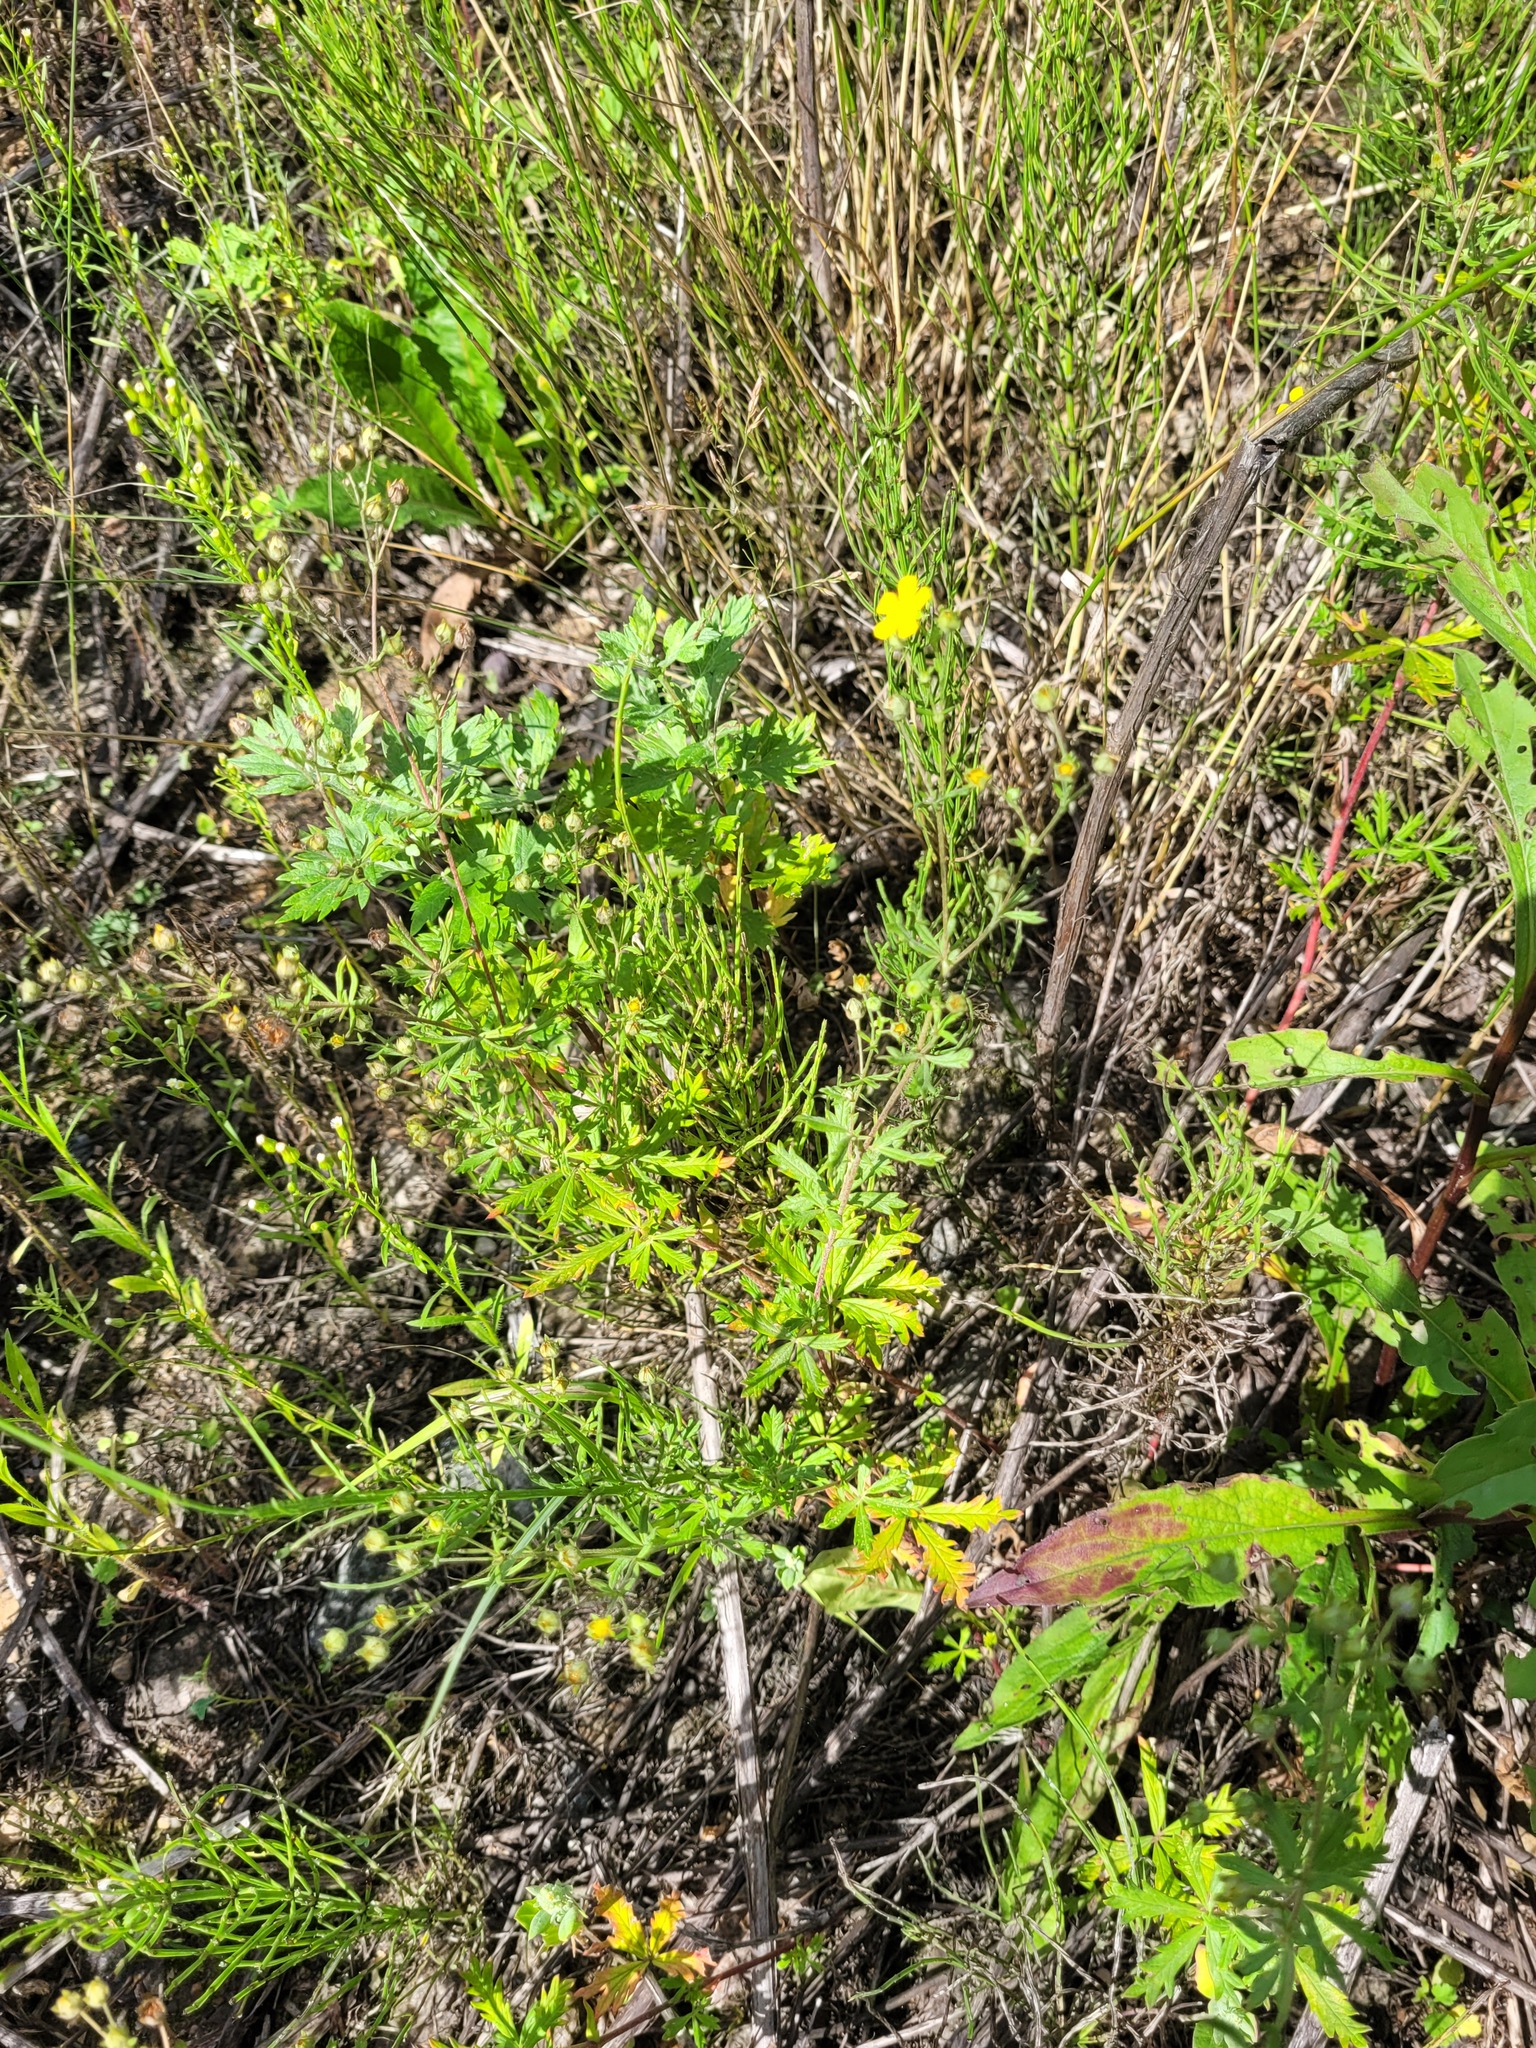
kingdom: Plantae
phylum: Tracheophyta
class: Magnoliopsida
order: Rosales
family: Rosaceae
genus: Potentilla
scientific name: Potentilla argentea
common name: Hoary cinquefoil
